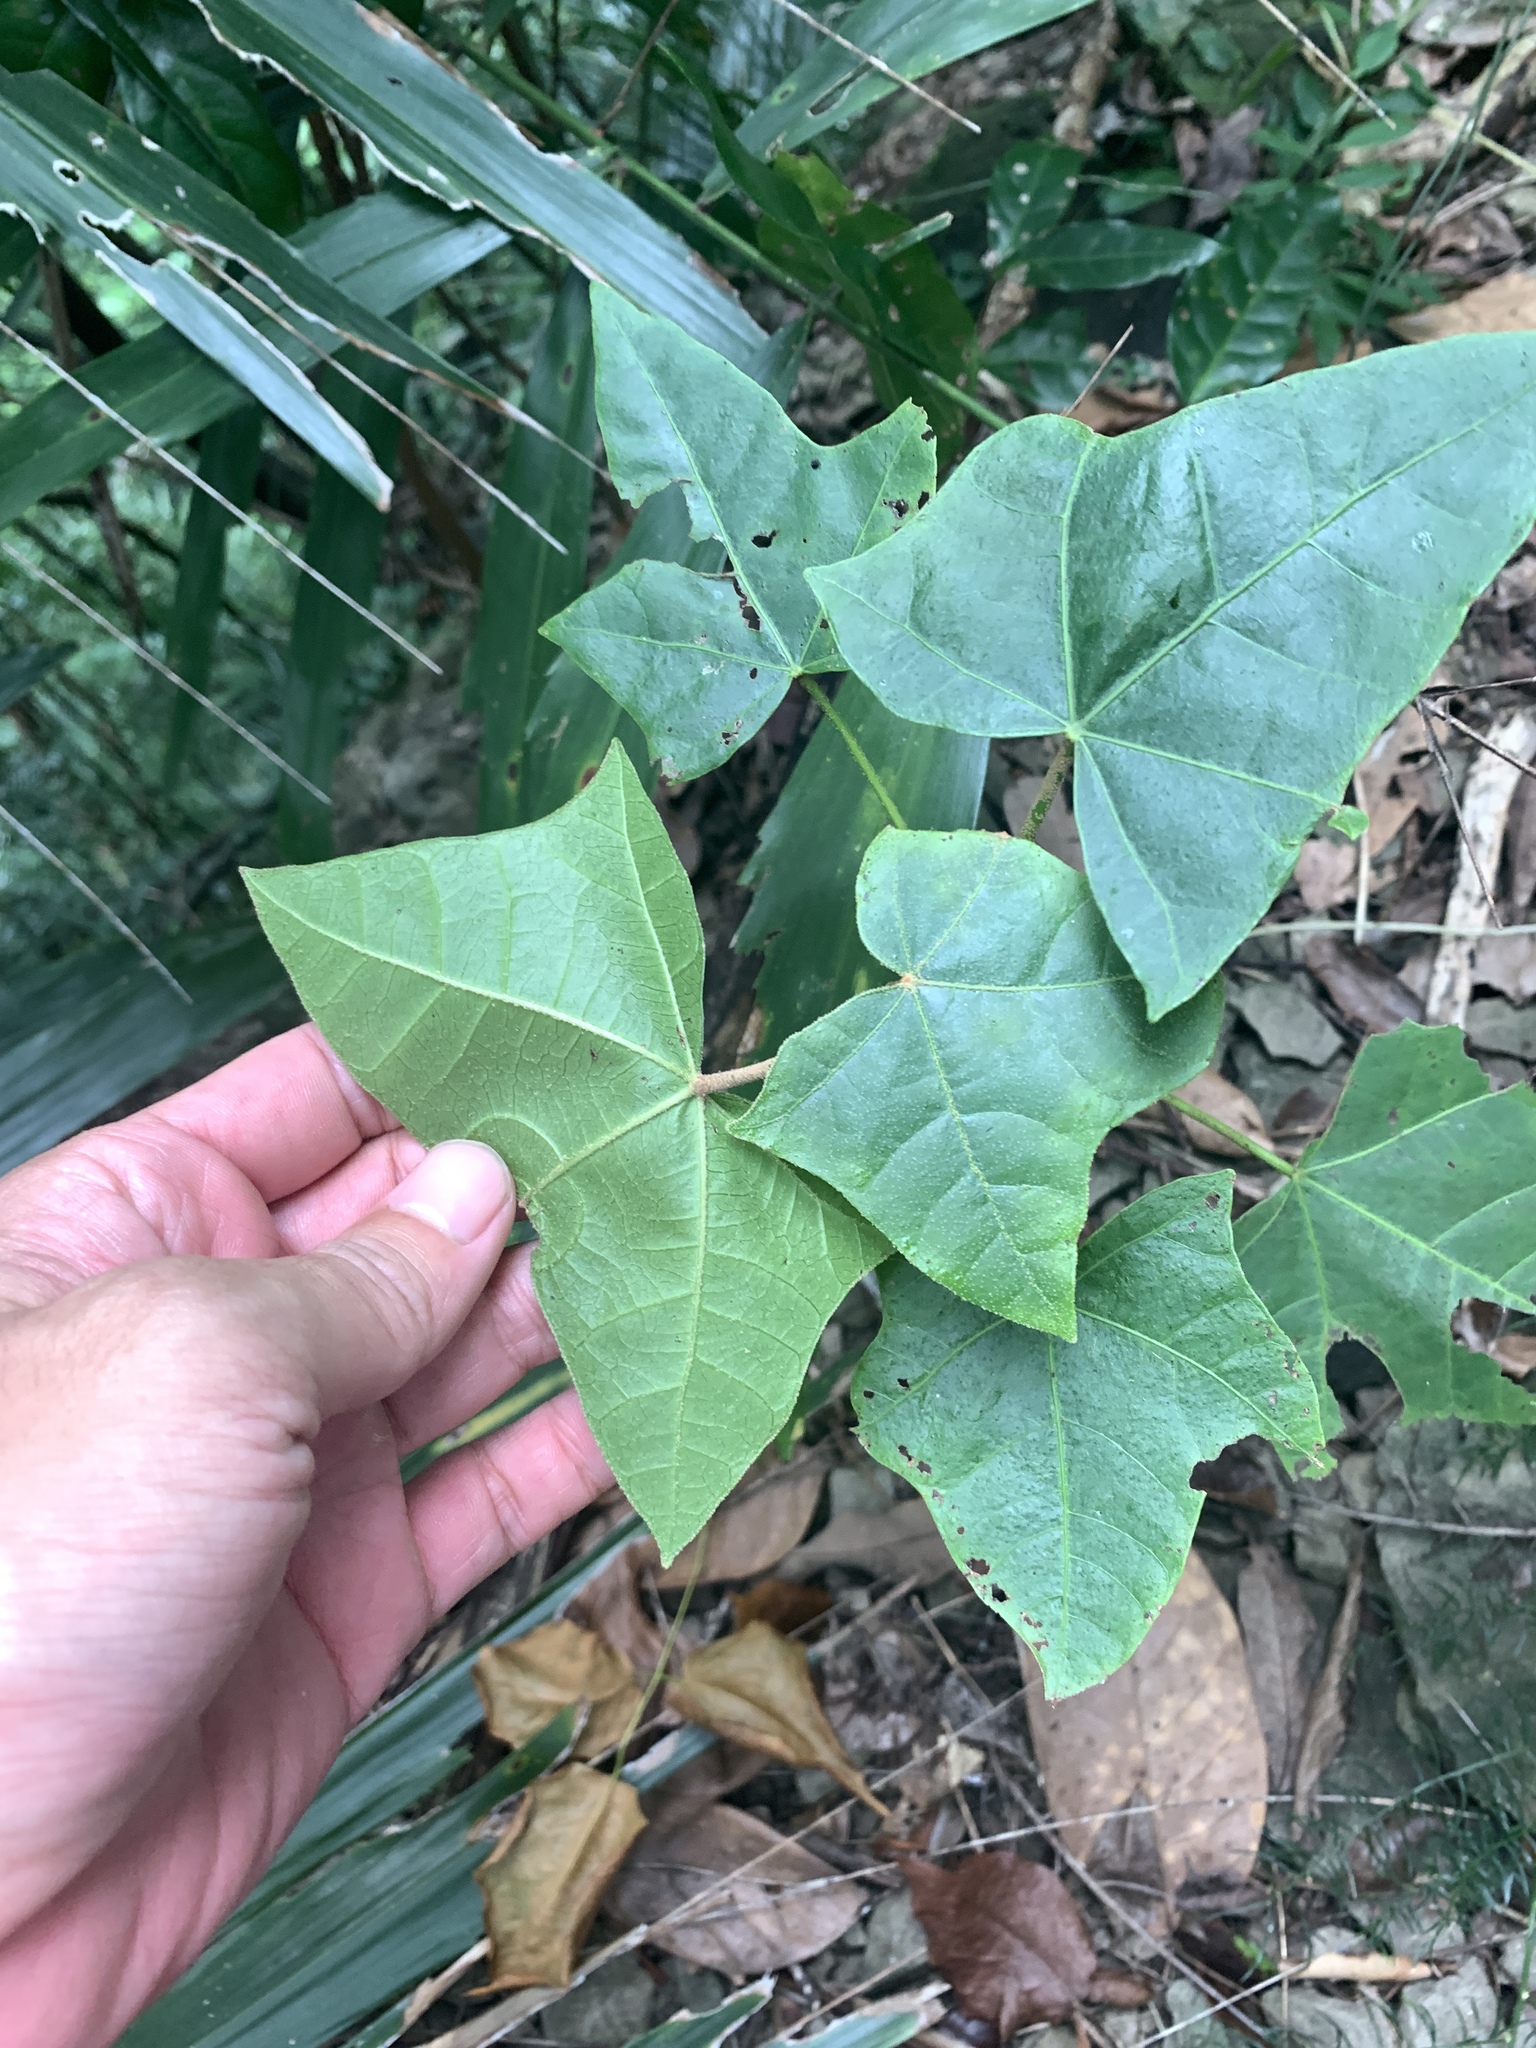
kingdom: Plantae
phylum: Tracheophyta
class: Magnoliopsida
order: Malpighiales
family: Euphorbiaceae
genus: Aleurites
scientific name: Aleurites moluccanus
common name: Candlenut tree
